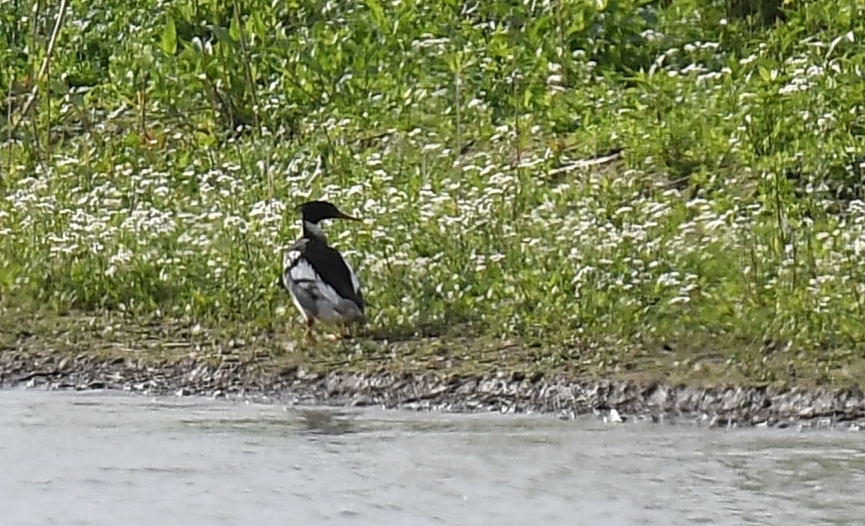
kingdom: Animalia
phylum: Chordata
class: Aves
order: Anseriformes
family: Anatidae
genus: Mergus
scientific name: Mergus serrator
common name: Red-breasted merganser
